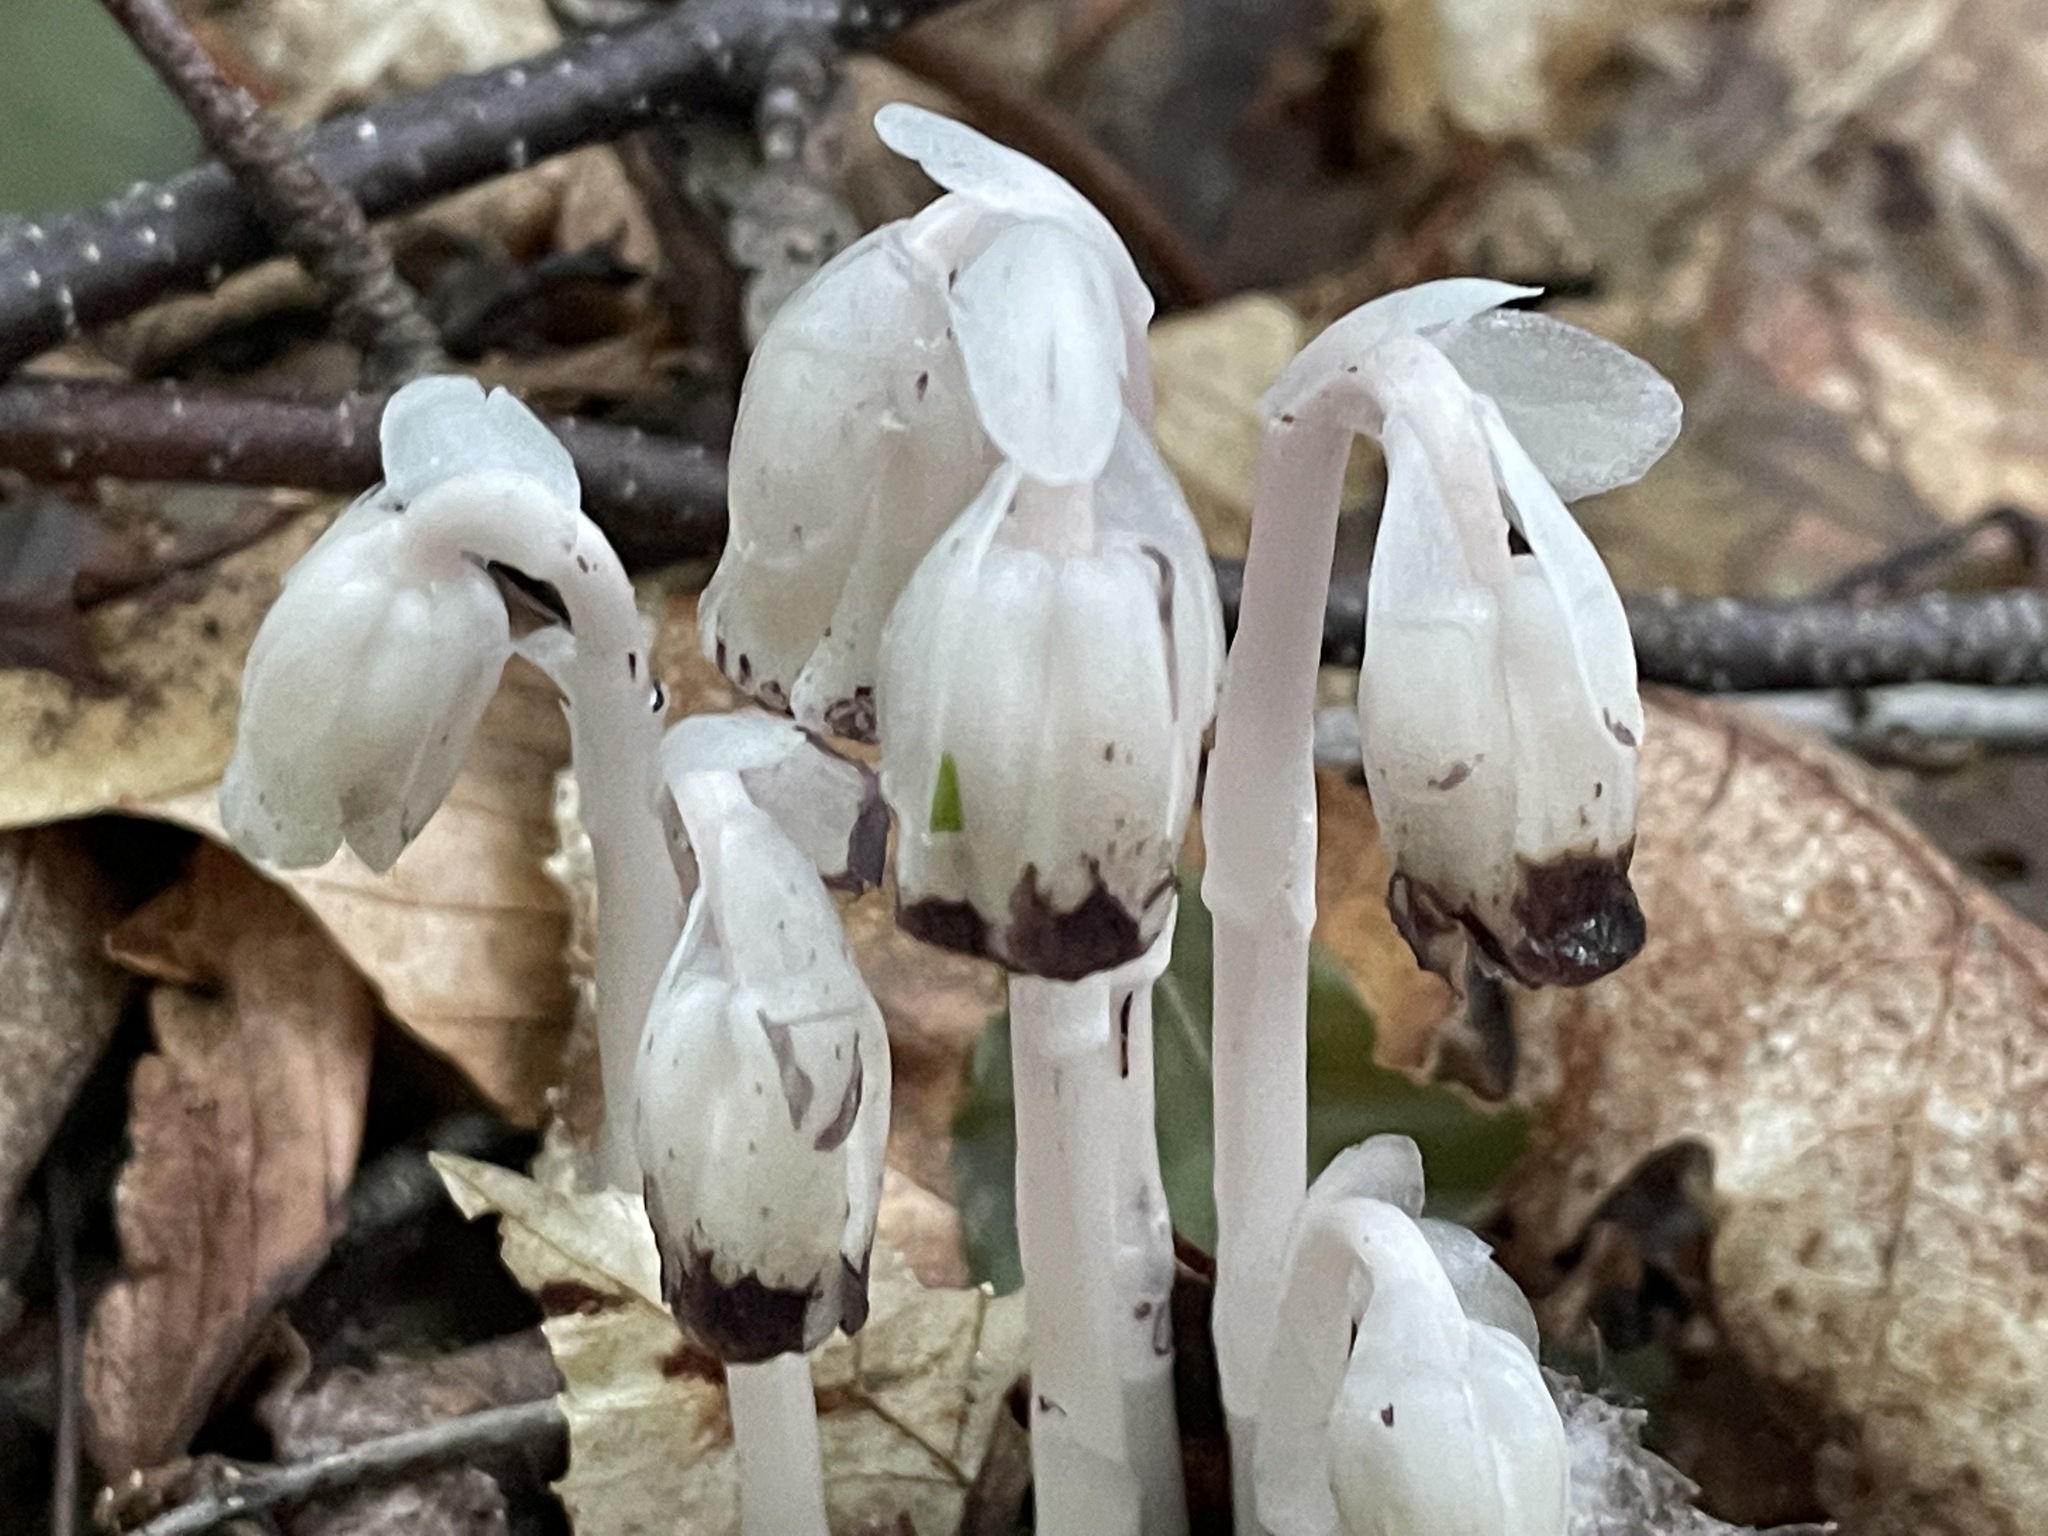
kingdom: Plantae
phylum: Tracheophyta
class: Magnoliopsida
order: Ericales
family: Ericaceae
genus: Monotropa
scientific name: Monotropa uniflora
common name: Convulsion root
